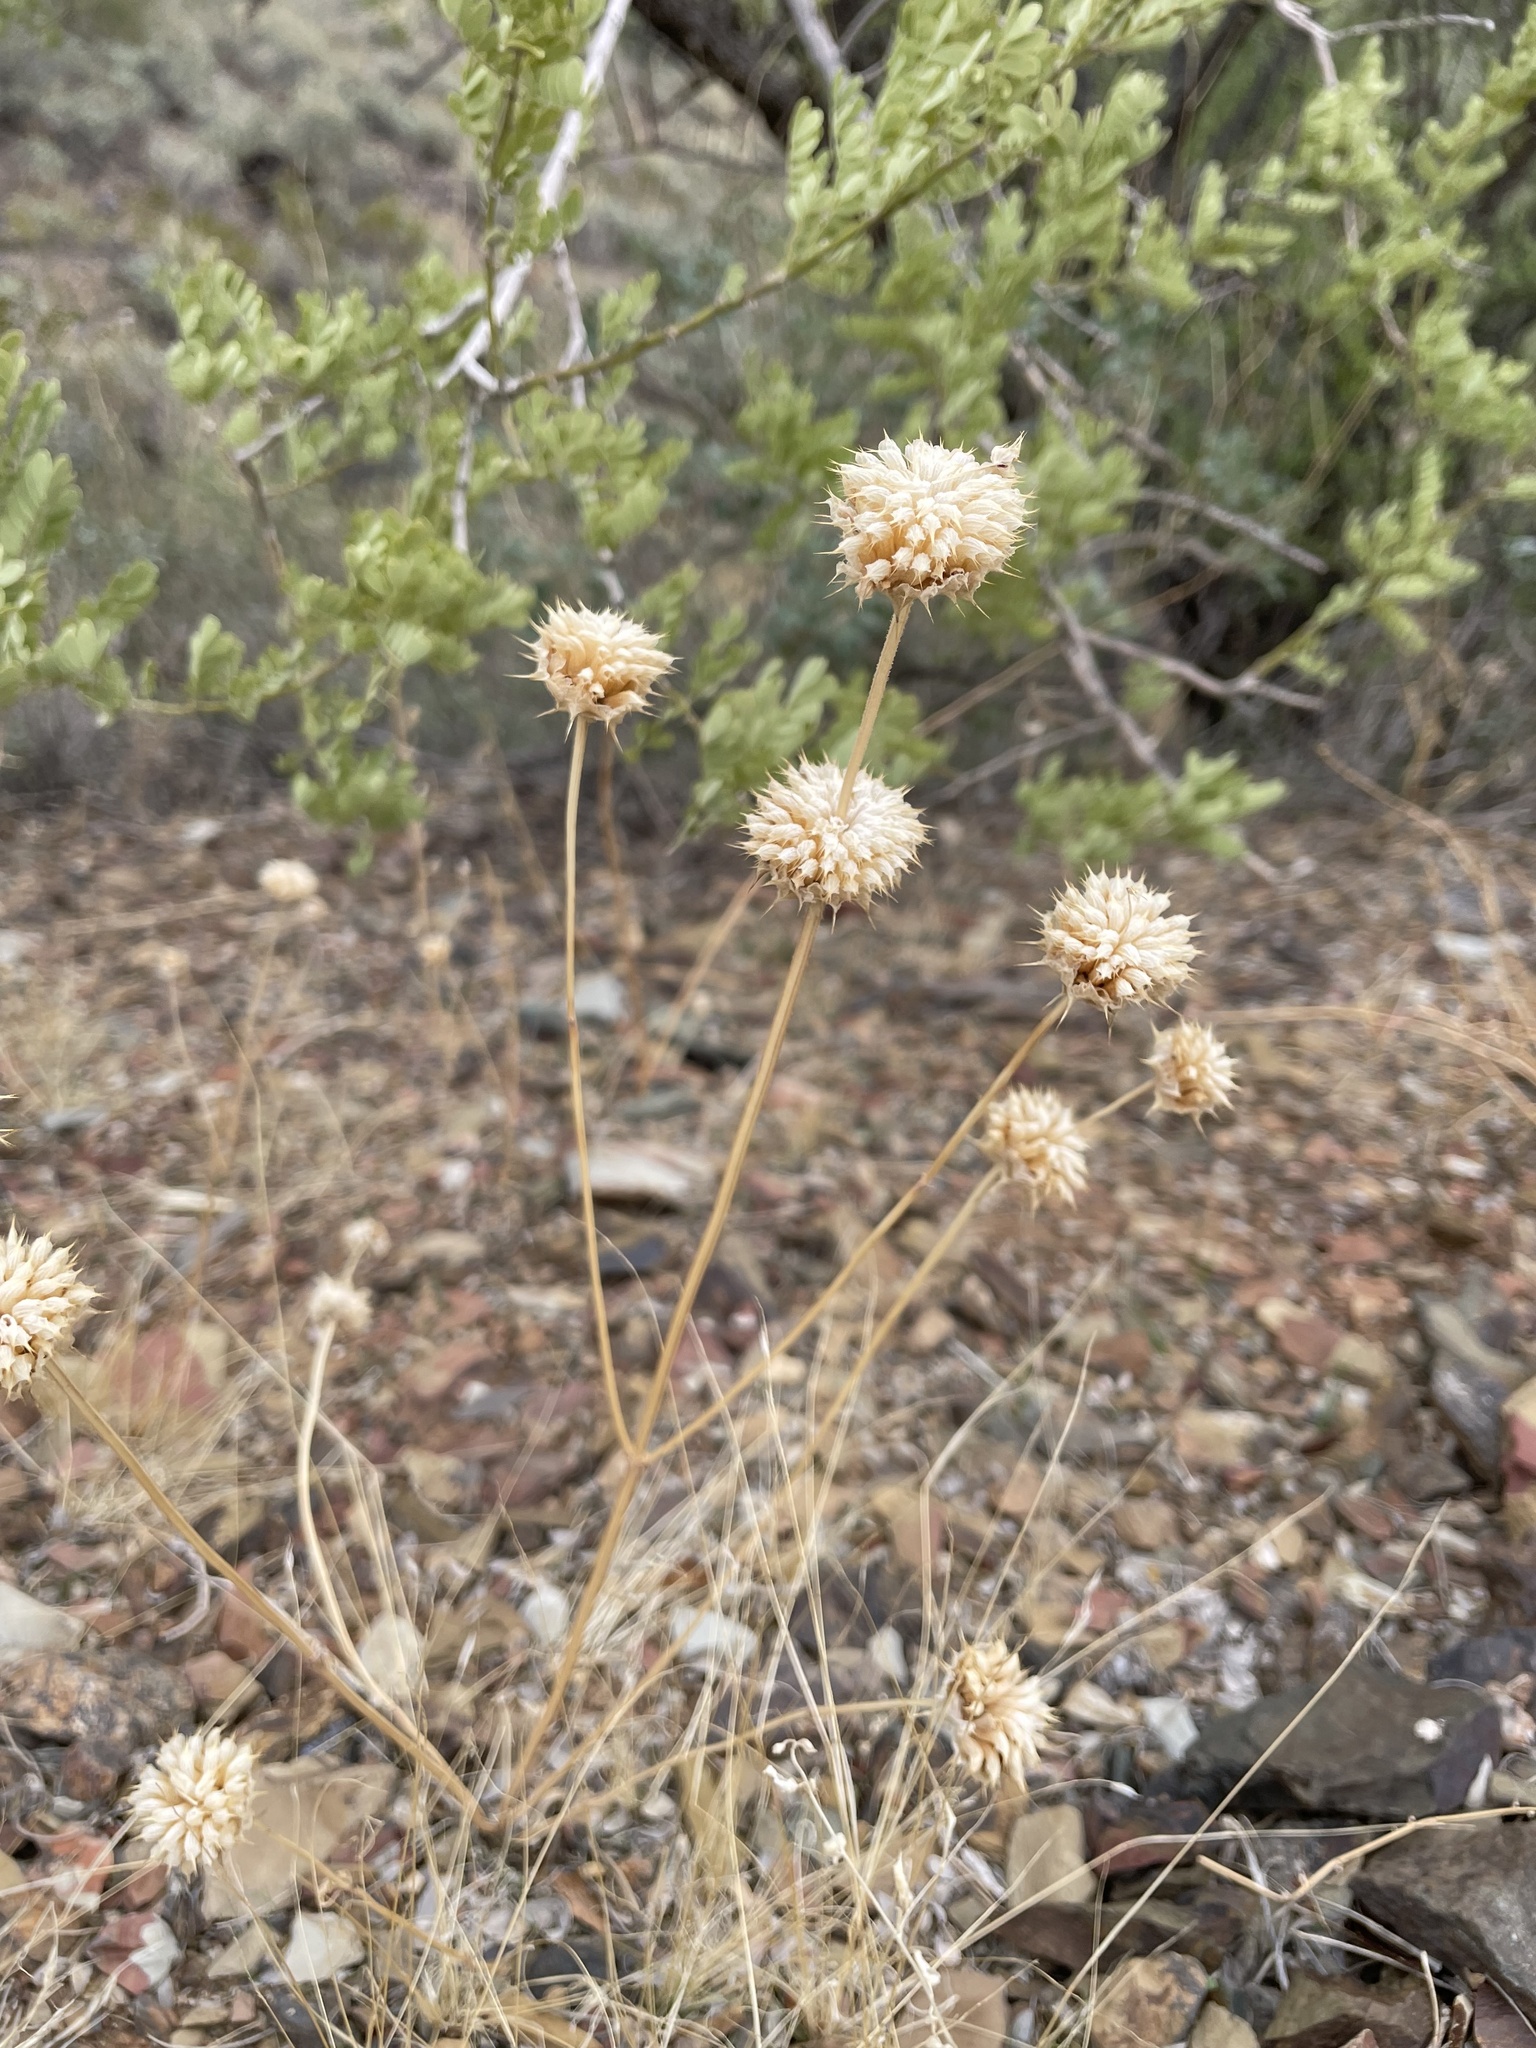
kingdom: Plantae
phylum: Tracheophyta
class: Magnoliopsida
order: Lamiales
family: Lamiaceae
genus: Salvia
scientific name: Salvia columbariae
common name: Chia
